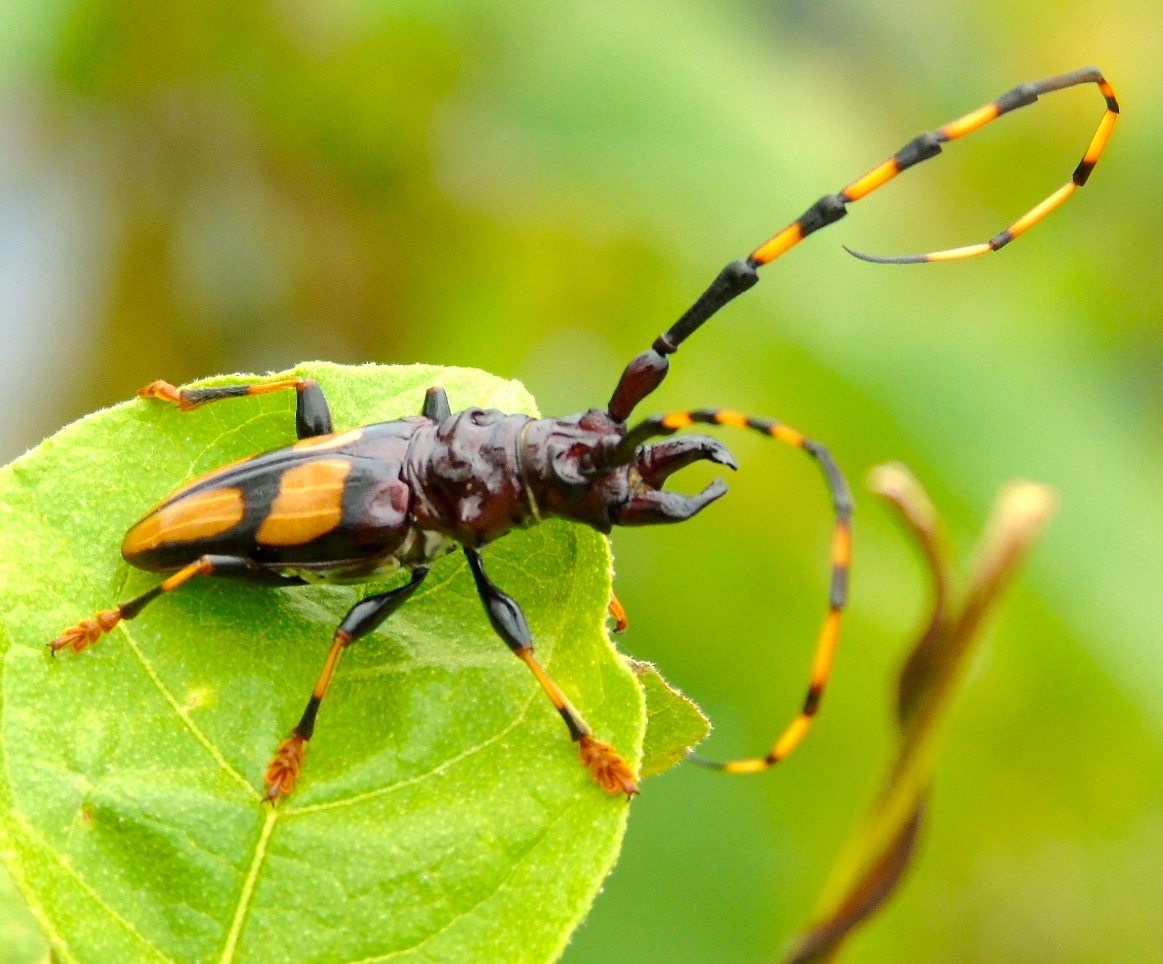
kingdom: Animalia
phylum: Arthropoda
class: Insecta
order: Coleoptera
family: Cerambycidae
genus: Trachyderes
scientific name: Trachyderes mandibularis
